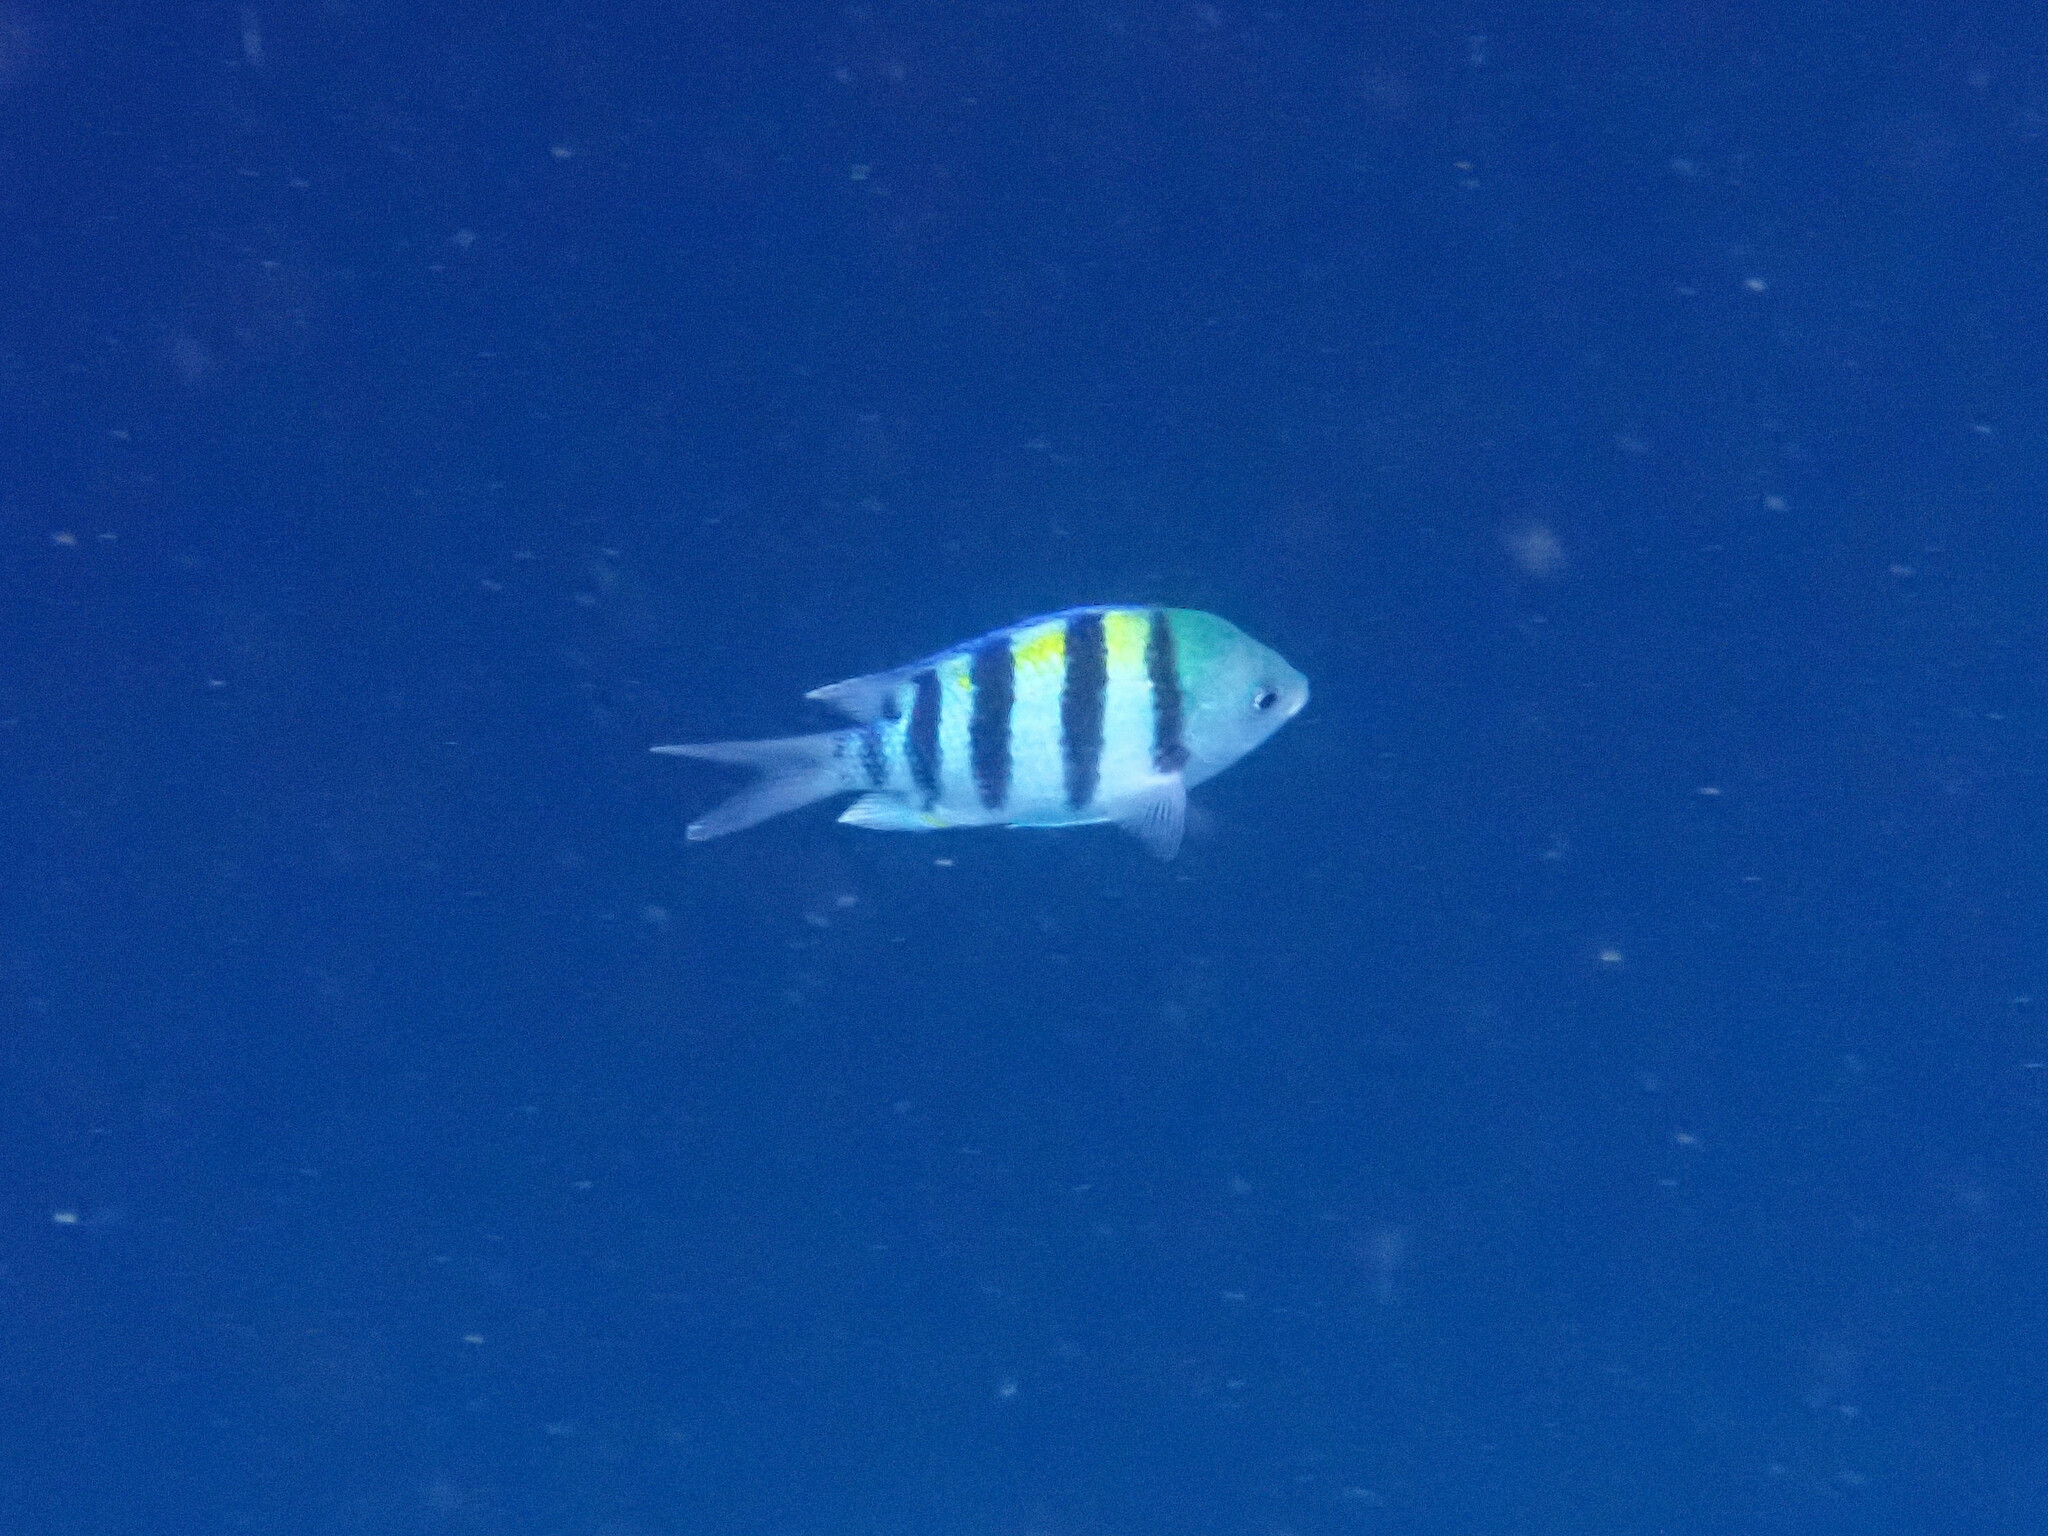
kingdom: Animalia
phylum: Chordata
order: Perciformes
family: Pomacentridae
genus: Abudefduf
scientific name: Abudefduf vaigiensis
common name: Indo-pacific sergeant
